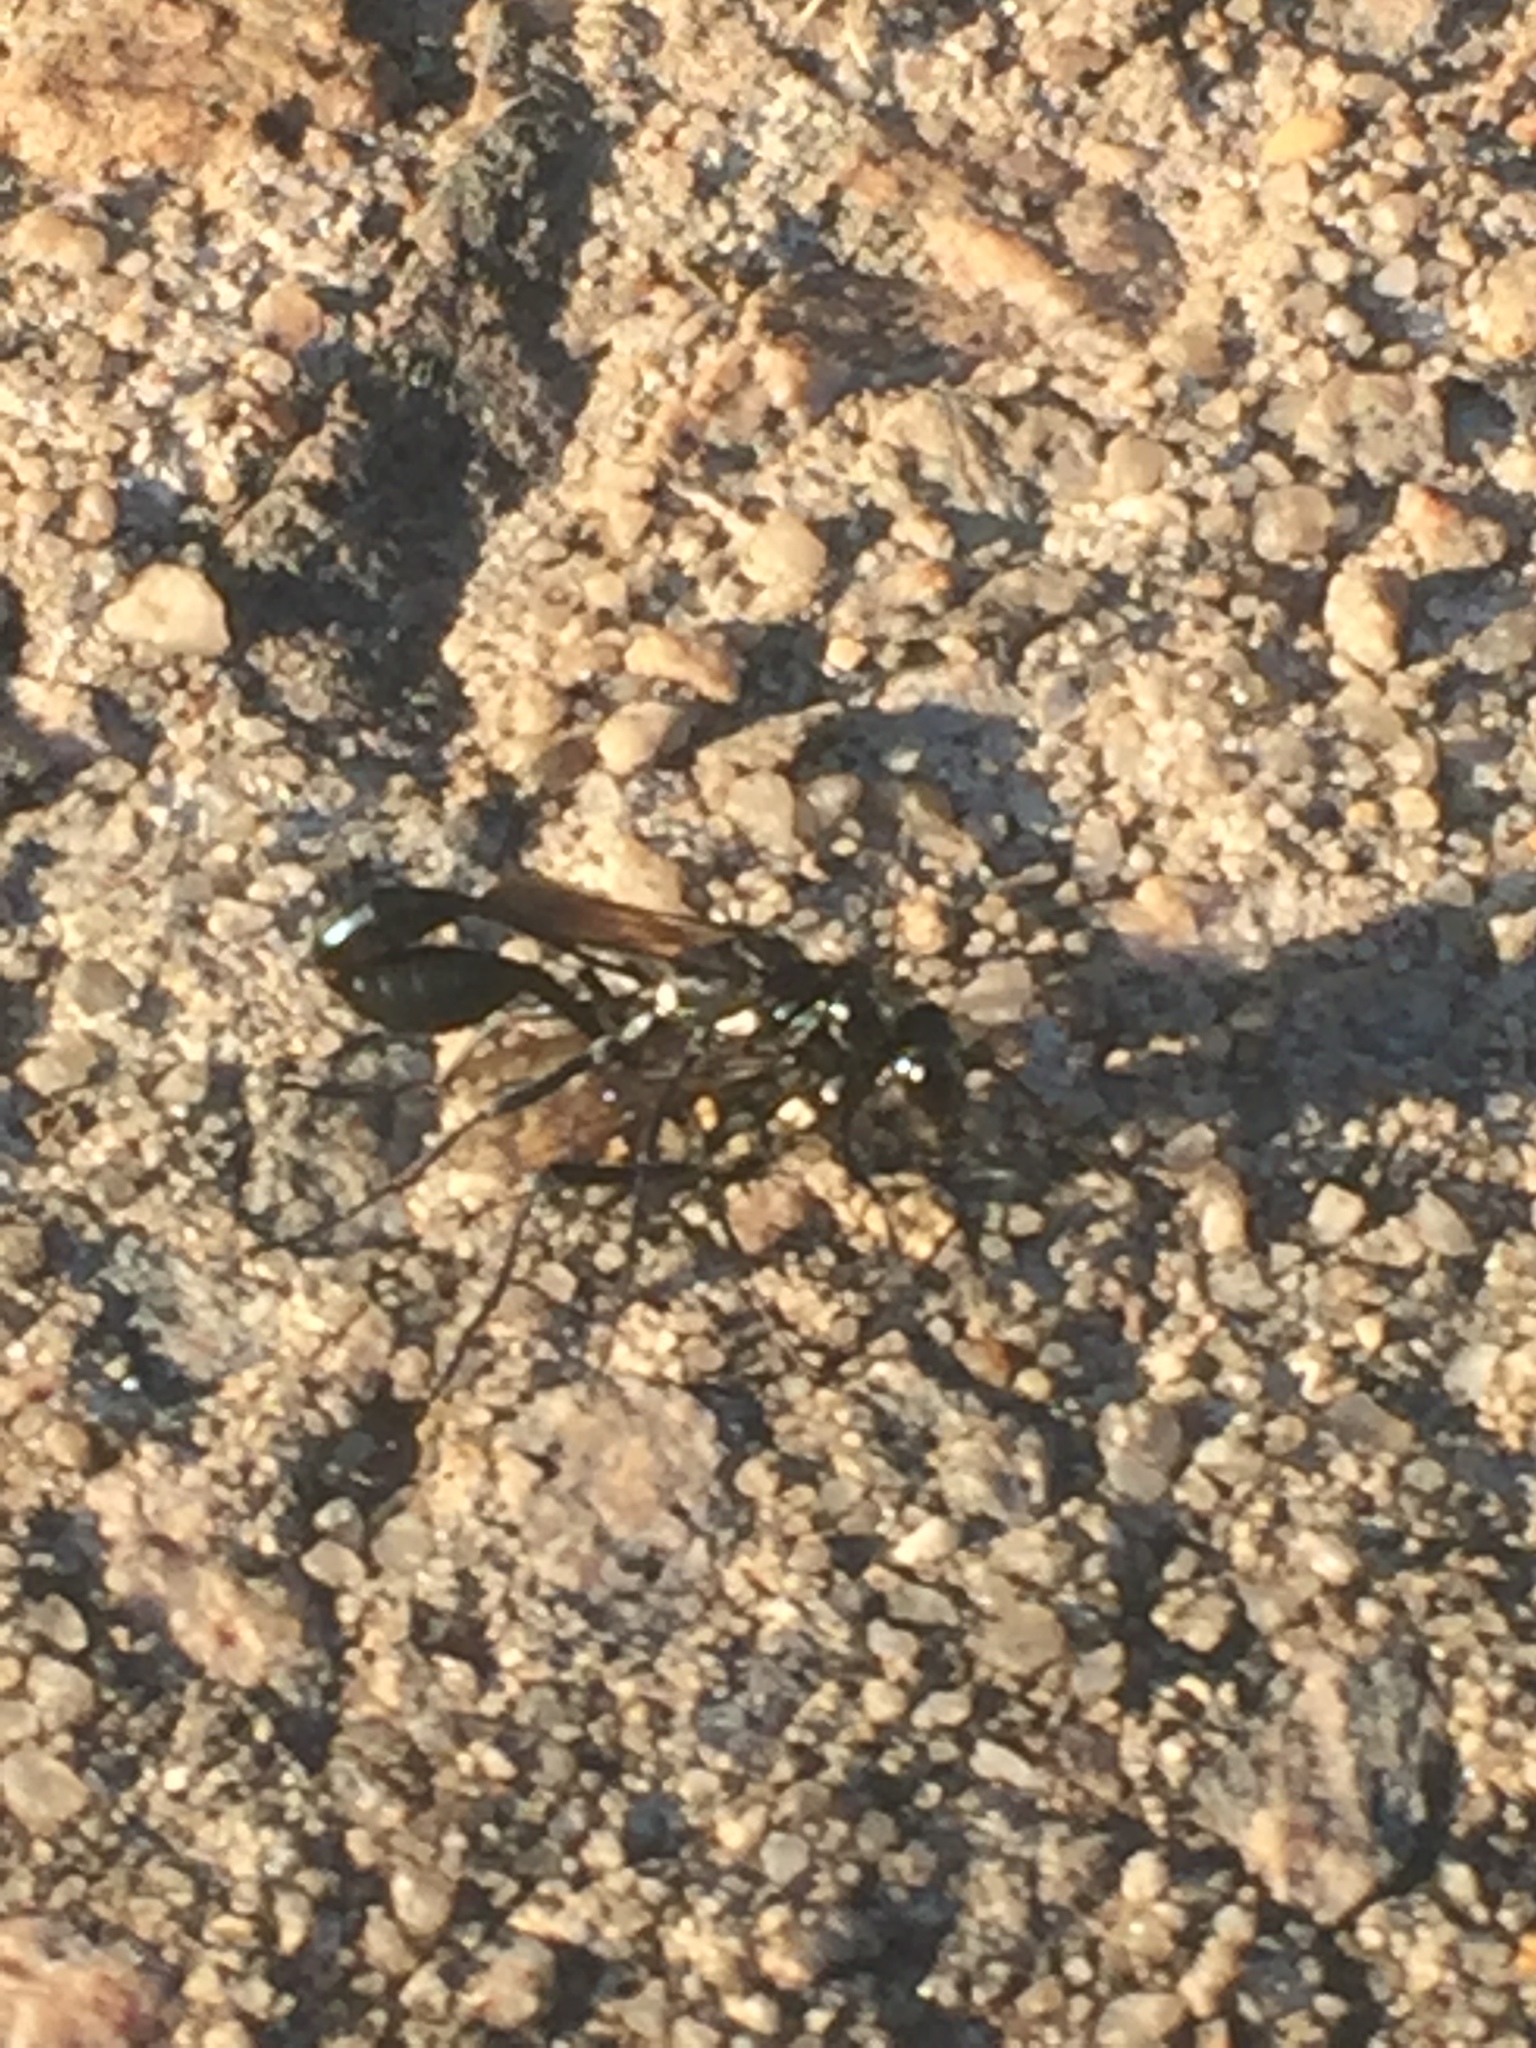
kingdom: Animalia
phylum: Arthropoda
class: Insecta
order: Hymenoptera
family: Sphecidae
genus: Eremnophila
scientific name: Eremnophila aureonotata
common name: Gold-marked thread-waisted wasp
